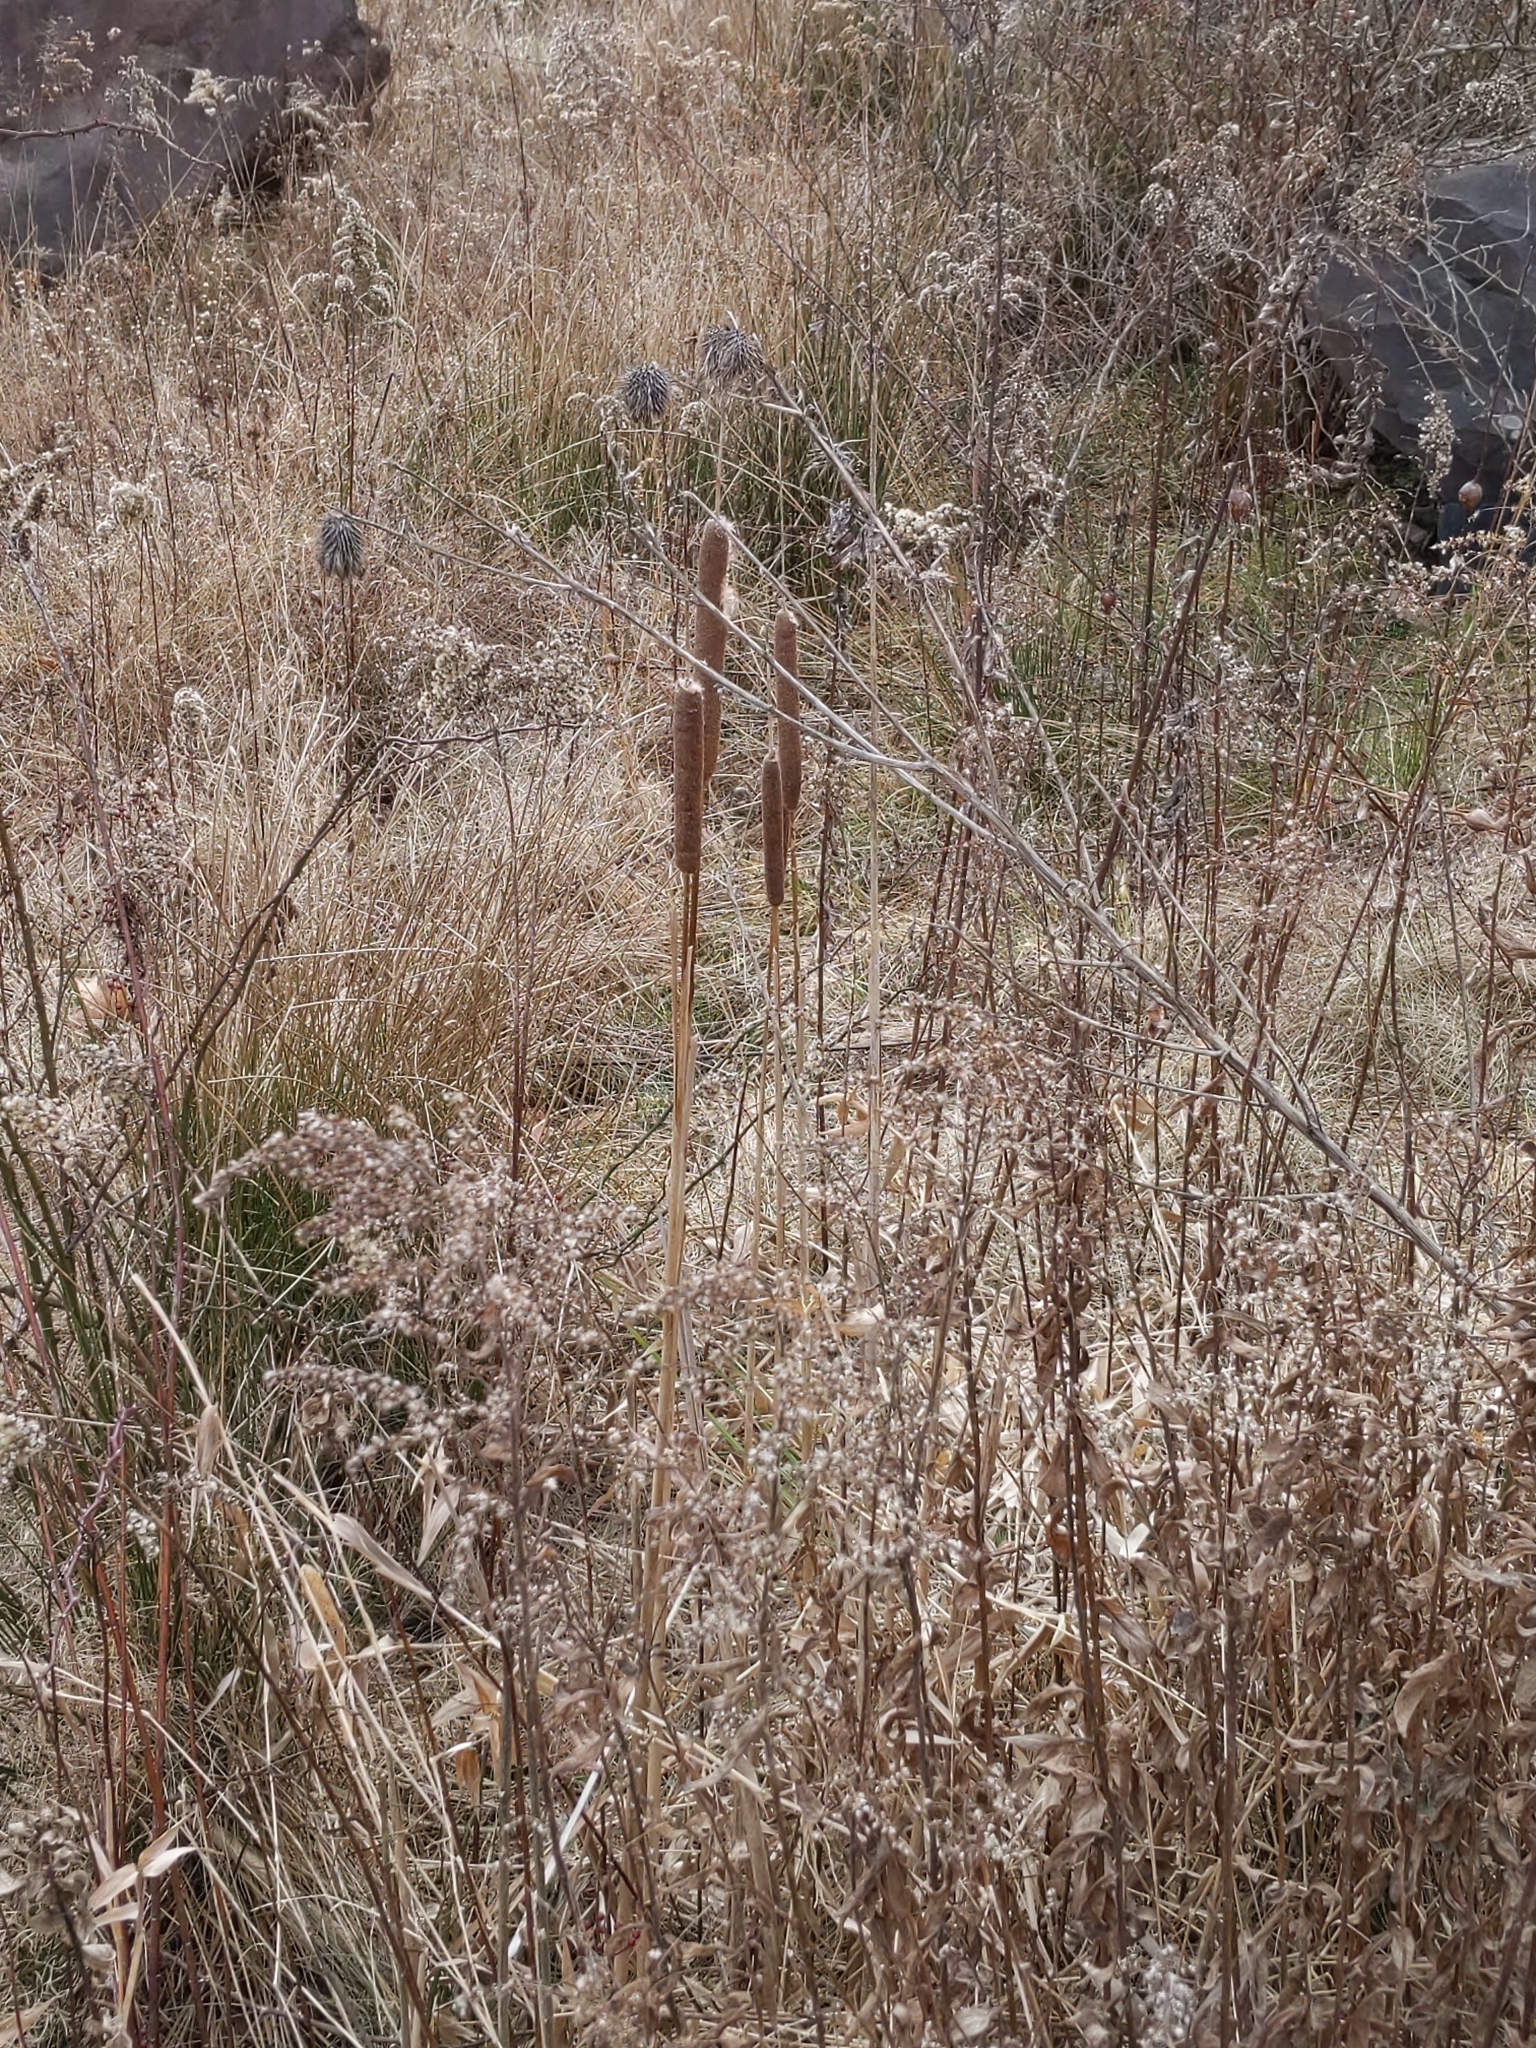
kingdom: Plantae
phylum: Tracheophyta
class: Liliopsida
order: Poales
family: Typhaceae
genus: Typha
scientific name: Typha
